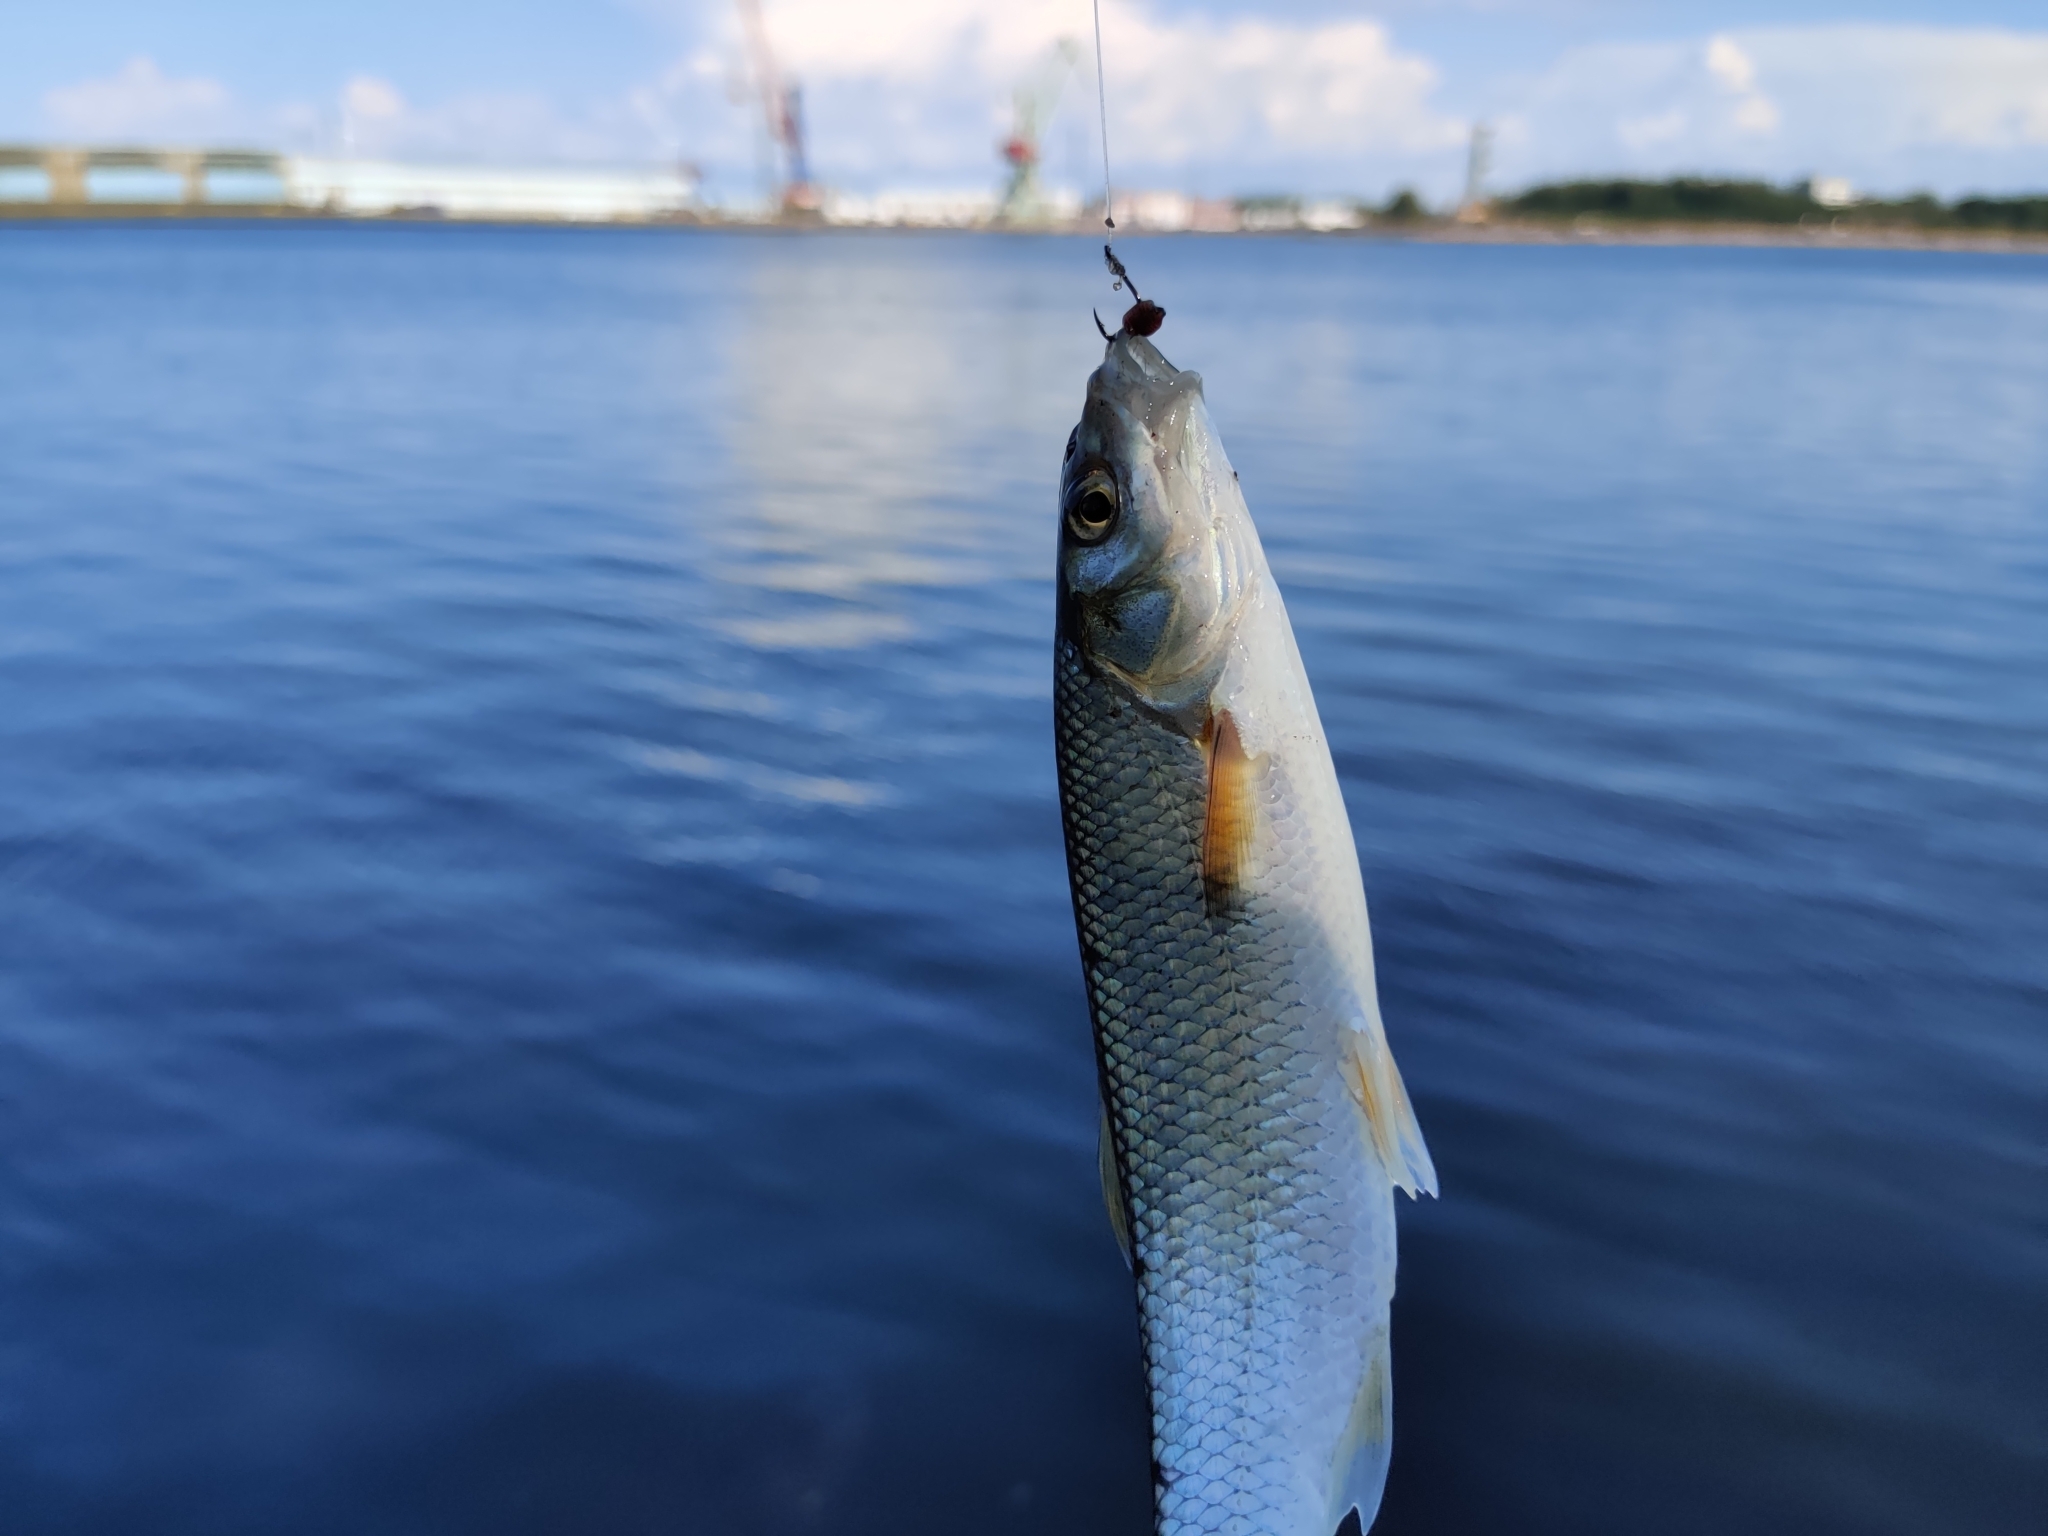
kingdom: Animalia
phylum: Chordata
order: Cypriniformes
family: Cyprinidae
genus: Leuciscus
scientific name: Leuciscus leuciscus
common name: Dace
